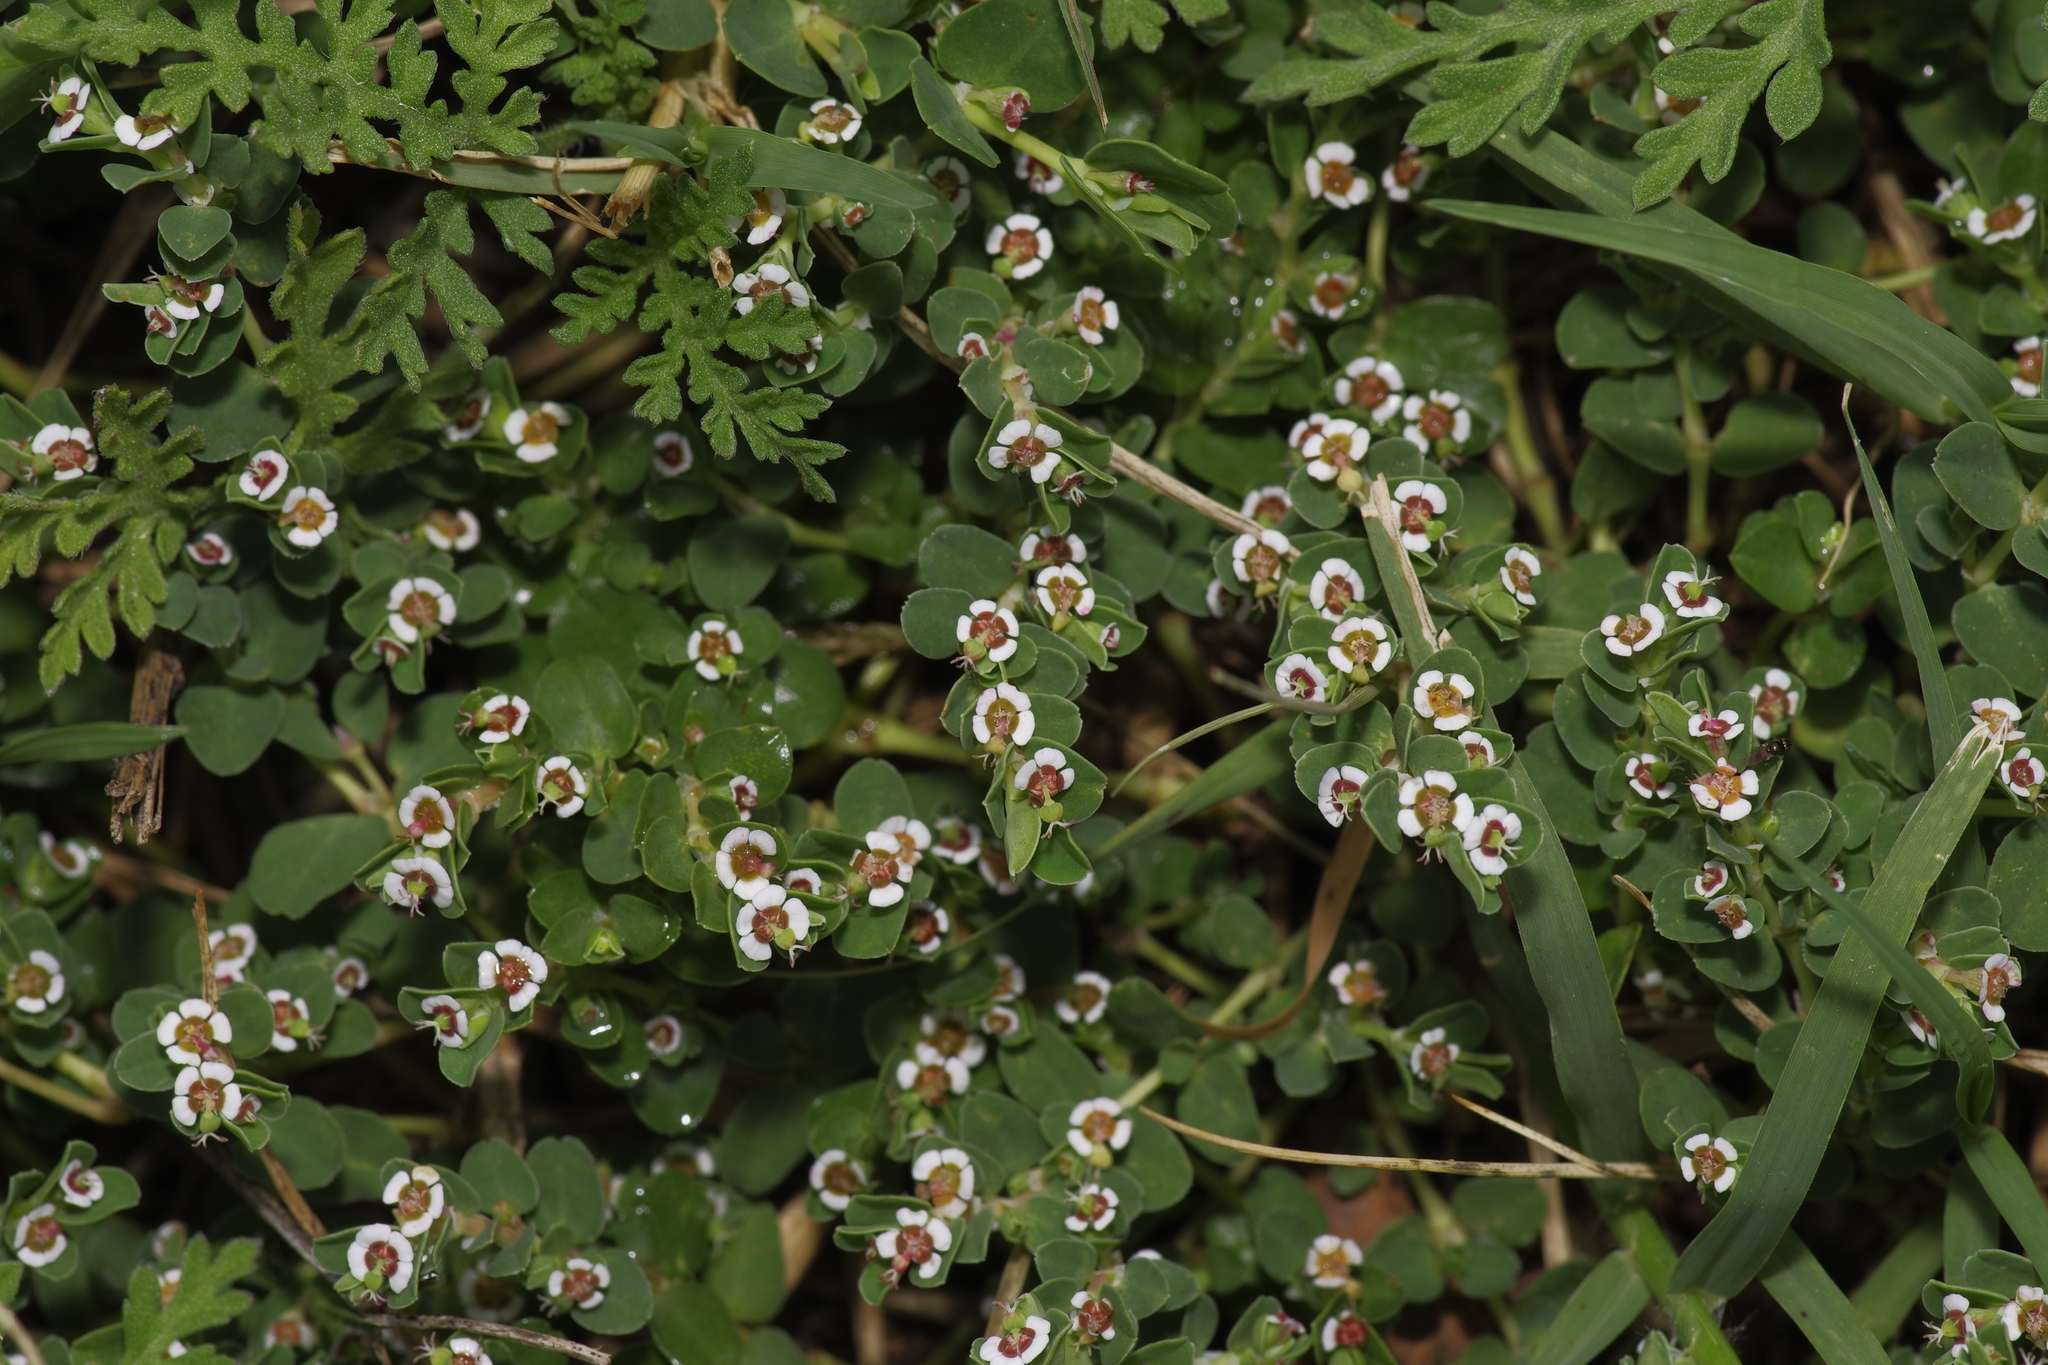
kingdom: Plantae
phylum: Tracheophyta
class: Magnoliopsida
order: Malpighiales
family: Euphorbiaceae
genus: Euphorbia
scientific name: Euphorbia albomarginata
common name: Whitemargin sandmat
